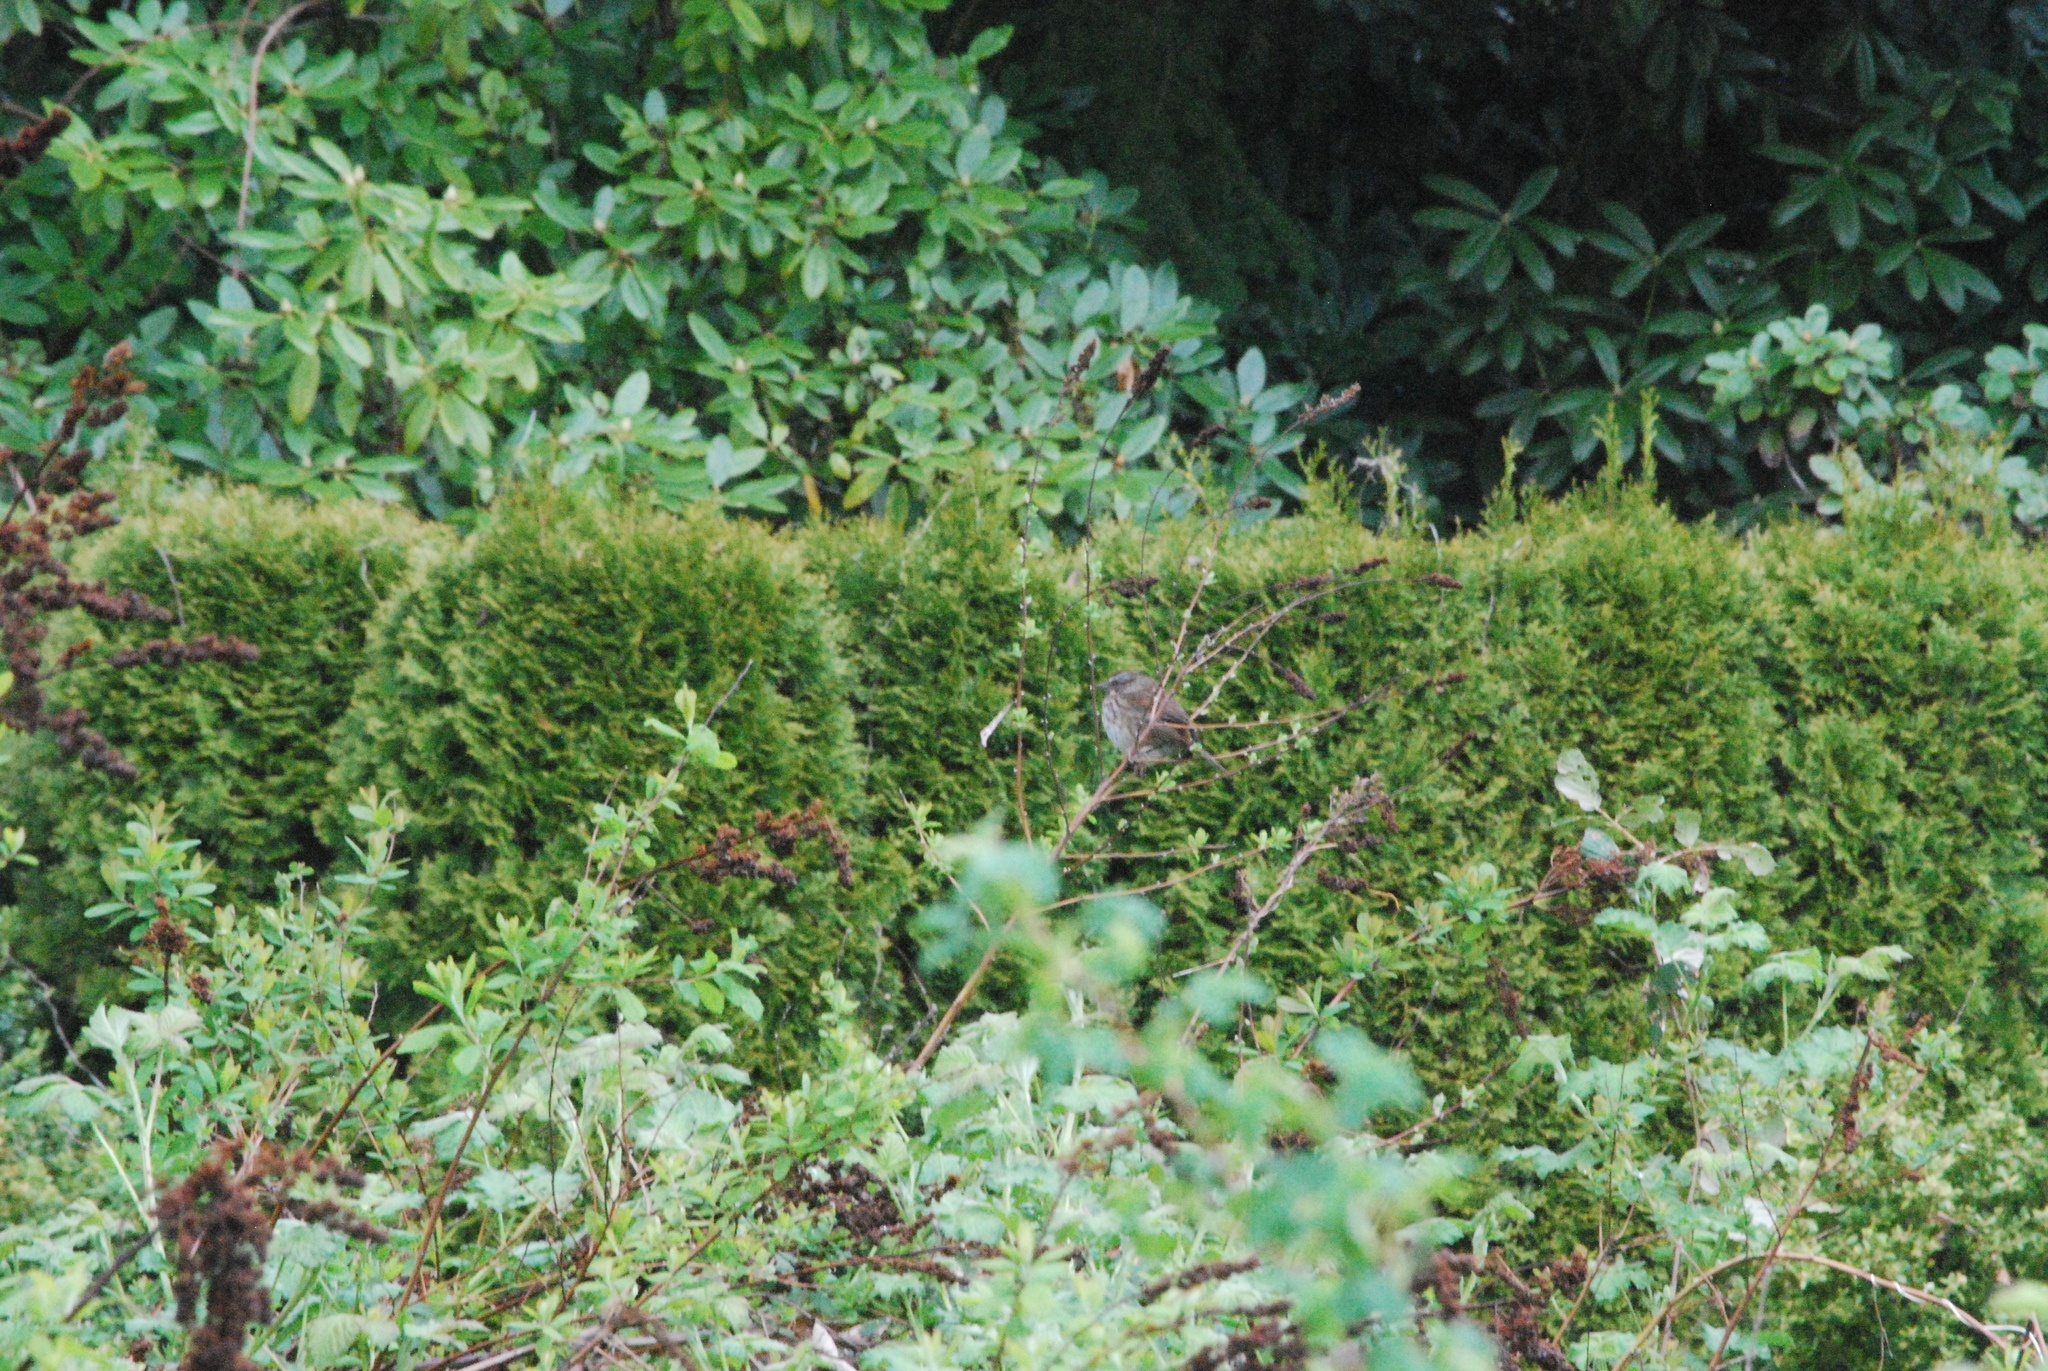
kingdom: Animalia
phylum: Chordata
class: Aves
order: Passeriformes
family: Passerellidae
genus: Melospiza
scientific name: Melospiza melodia
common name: Song sparrow
